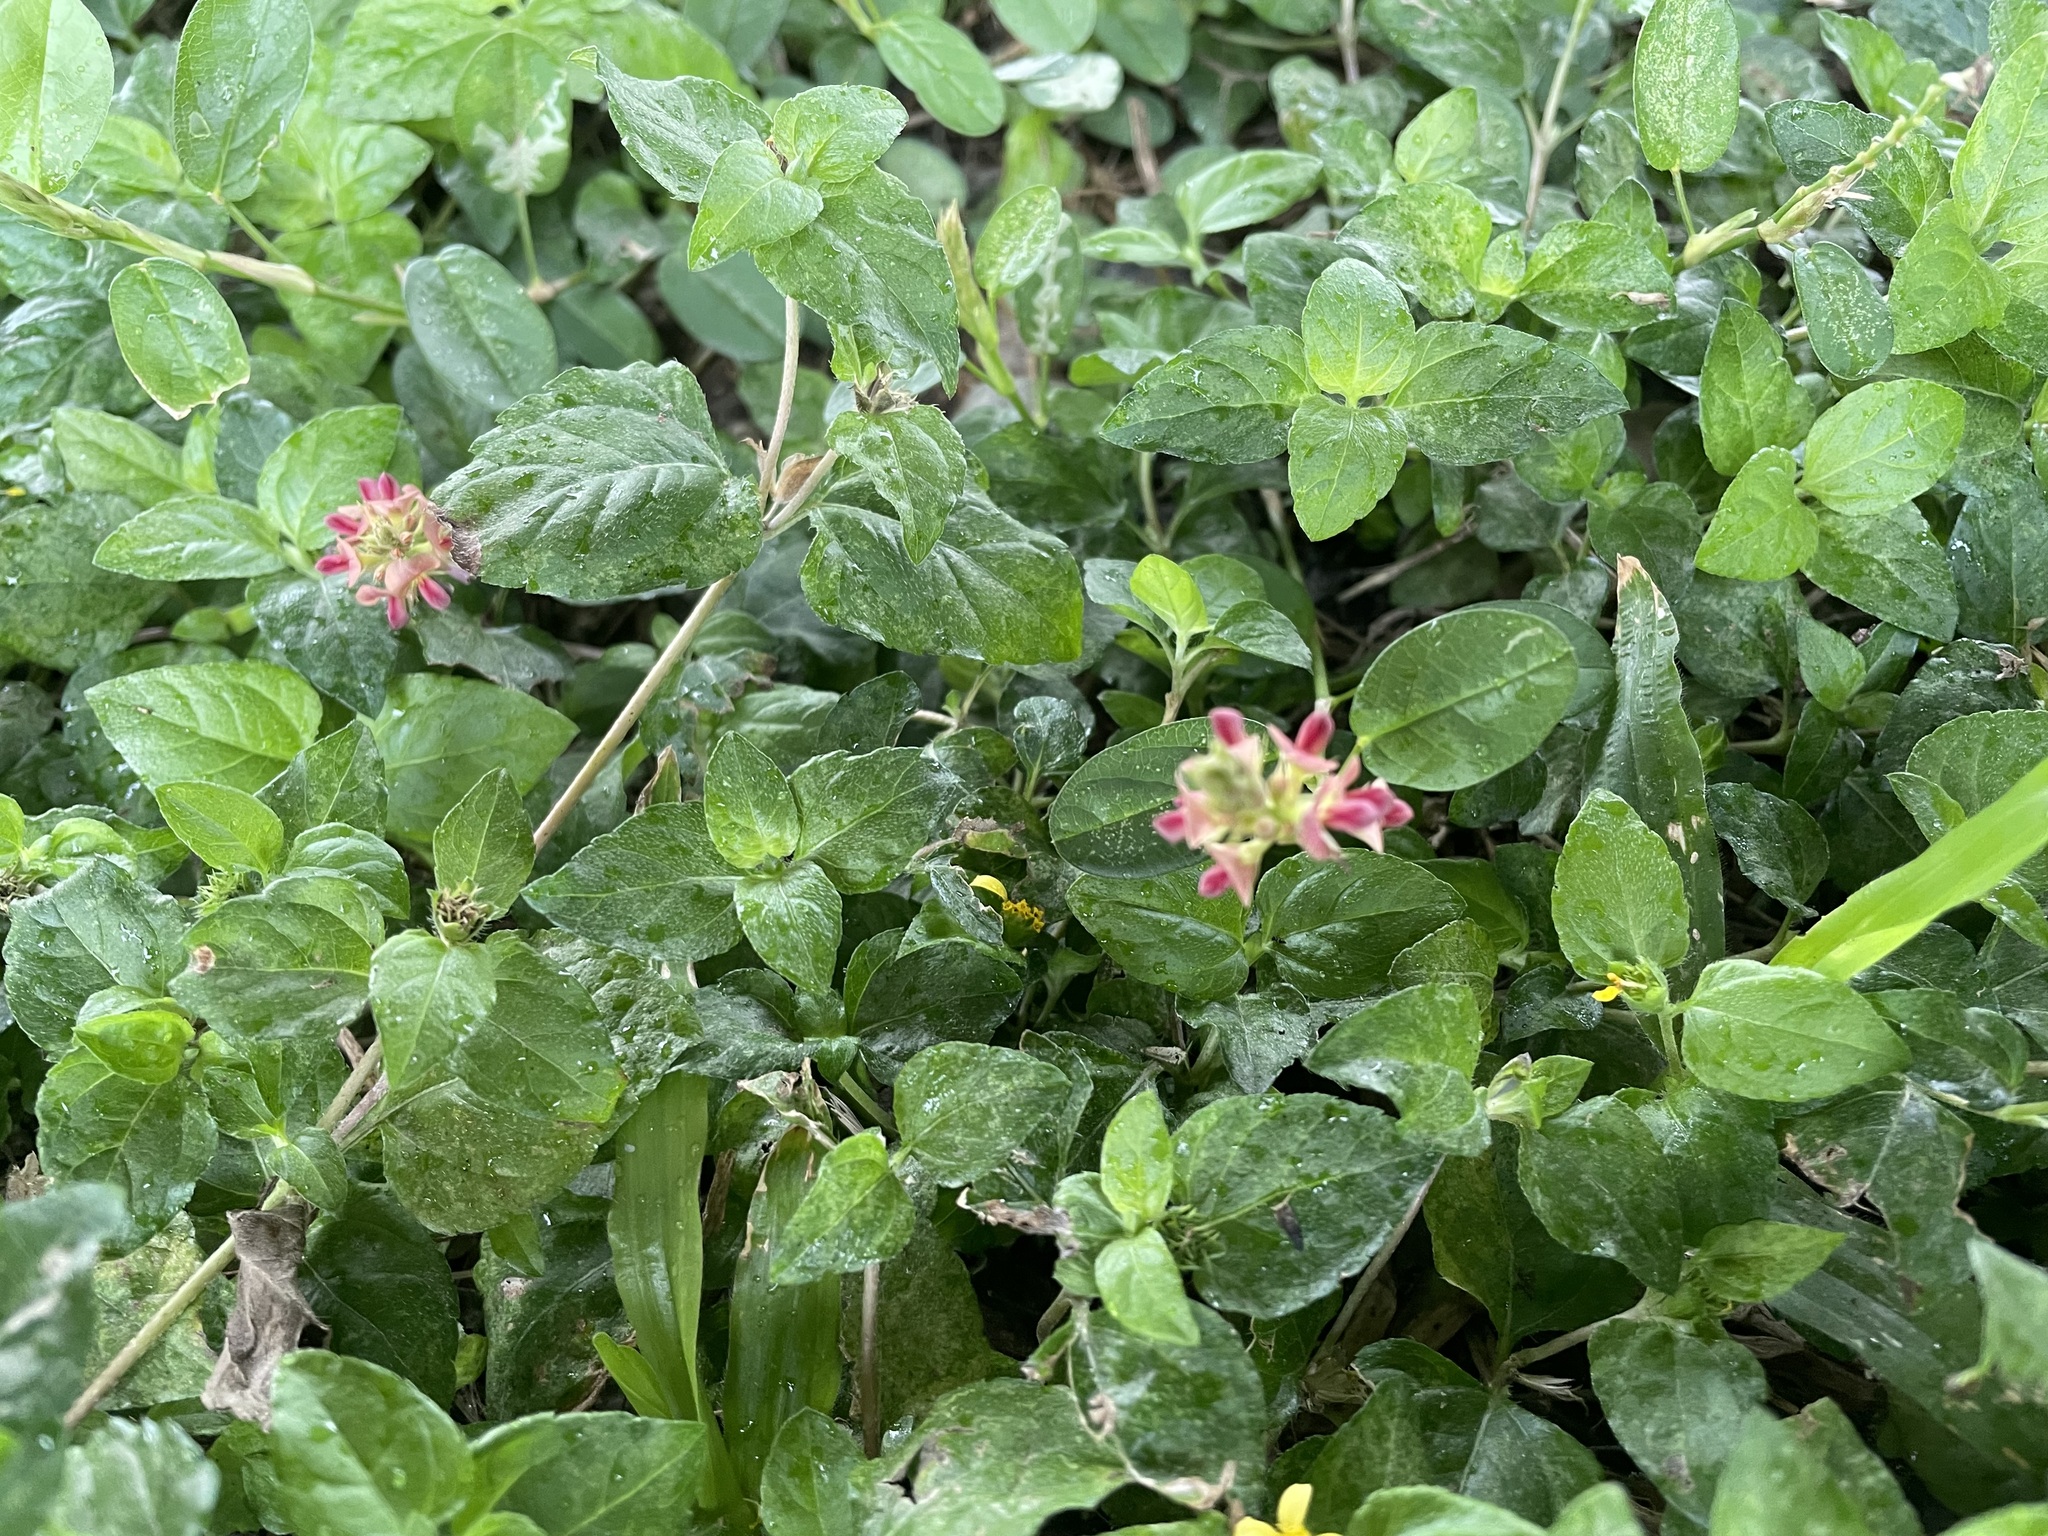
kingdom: Plantae
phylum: Tracheophyta
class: Magnoliopsida
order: Fabales
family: Fabaceae
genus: Alysicarpus
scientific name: Alysicarpus vaginalis
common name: White moneywort
